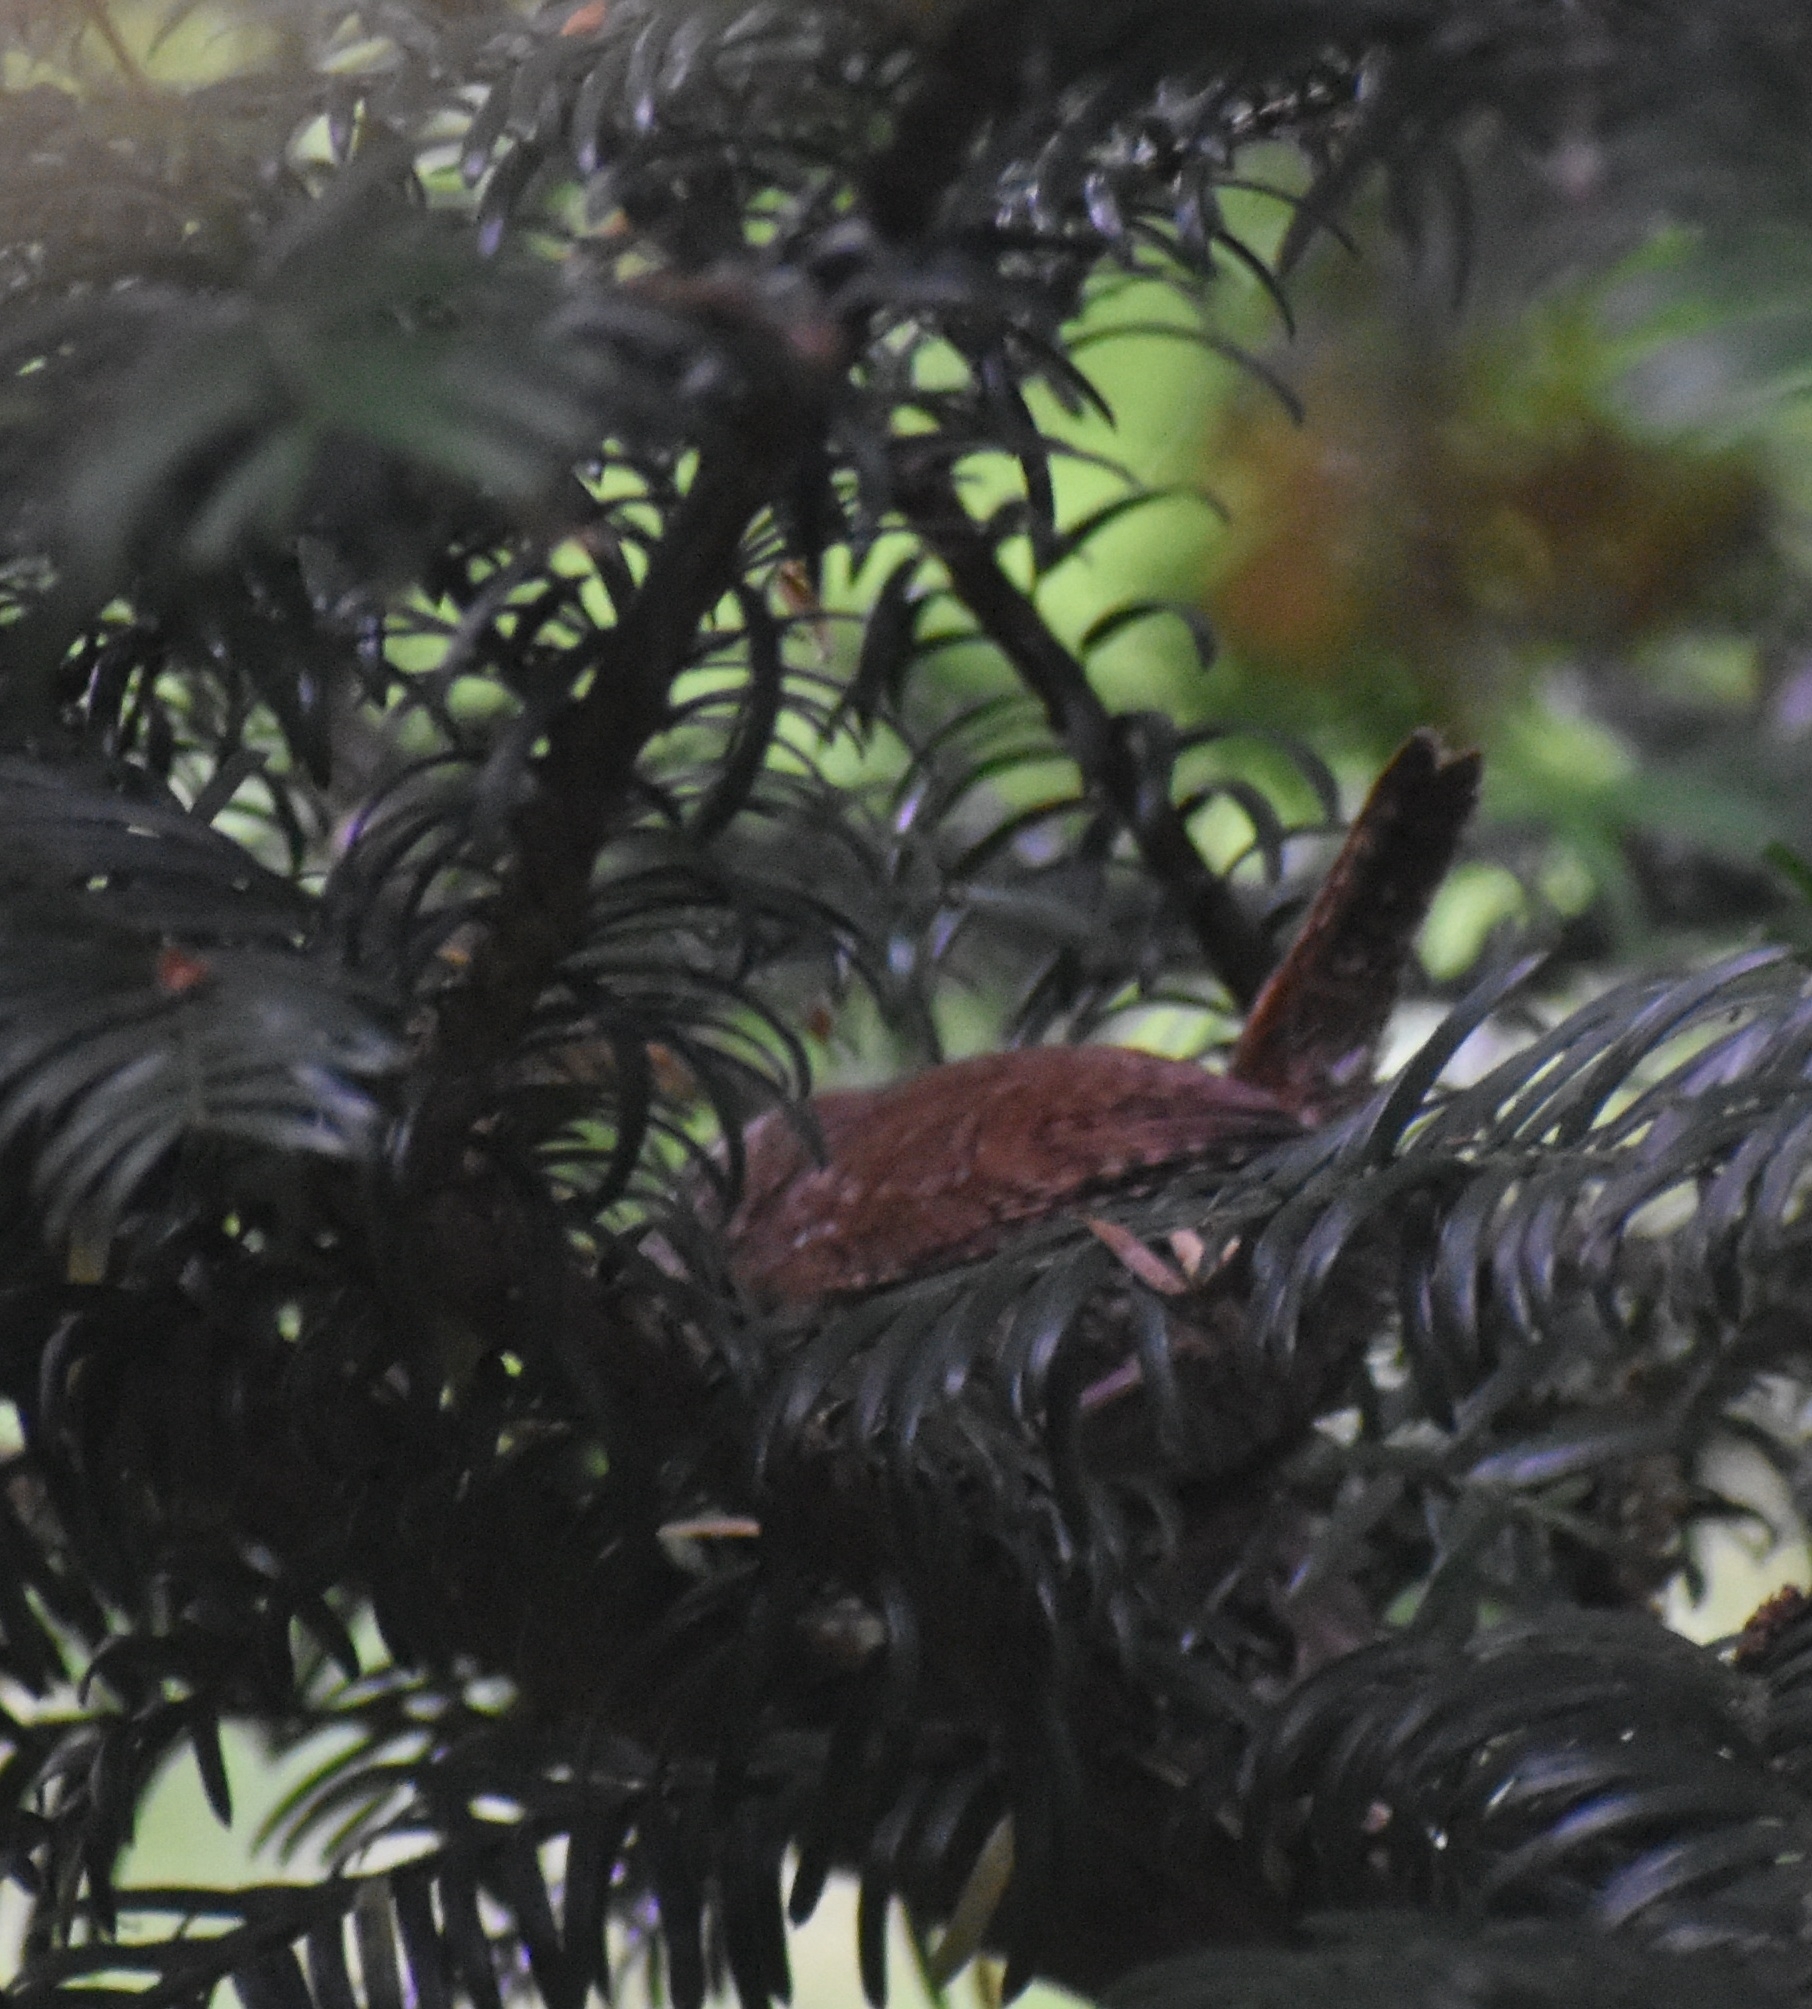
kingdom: Animalia
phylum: Chordata
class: Aves
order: Passeriformes
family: Troglodytidae
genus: Troglodytes
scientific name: Troglodytes troglodytes
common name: Eurasian wren
